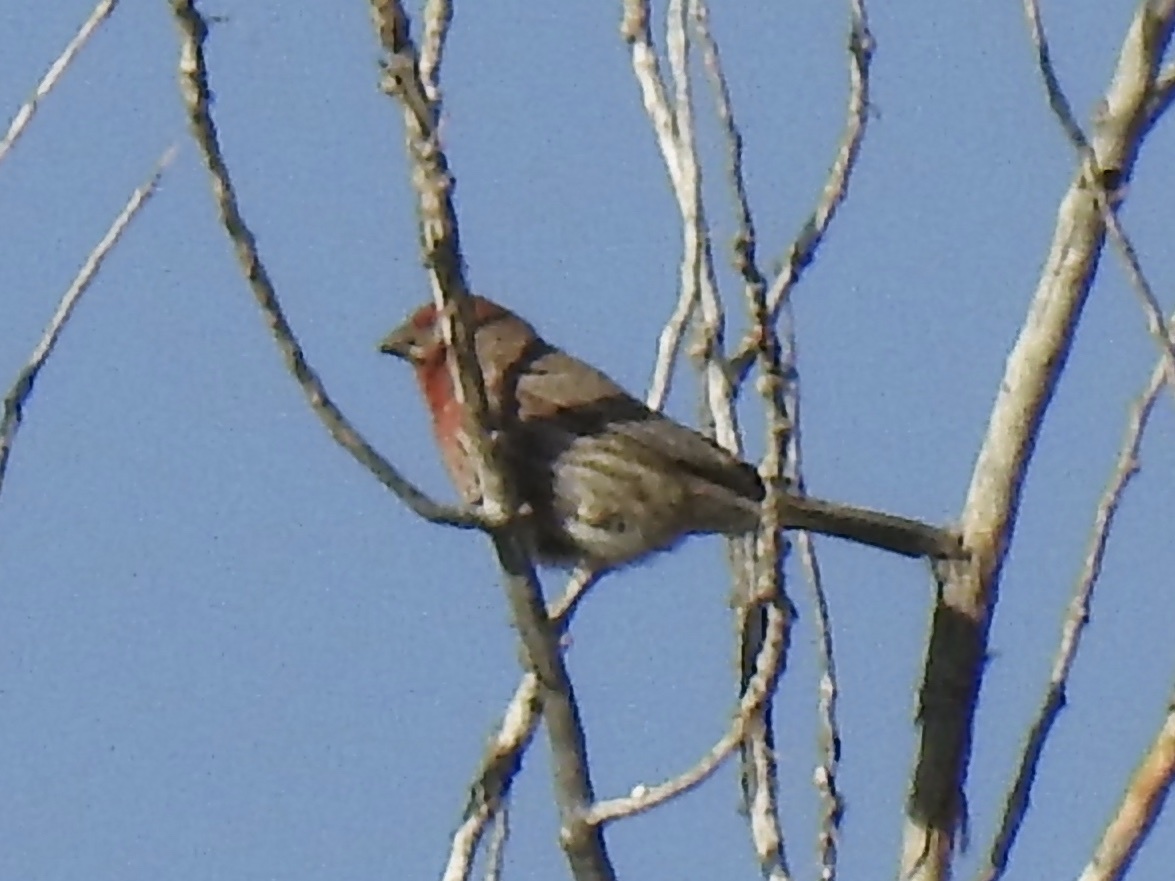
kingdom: Animalia
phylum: Chordata
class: Aves
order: Passeriformes
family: Fringillidae
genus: Haemorhous
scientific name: Haemorhous mexicanus
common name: House finch
